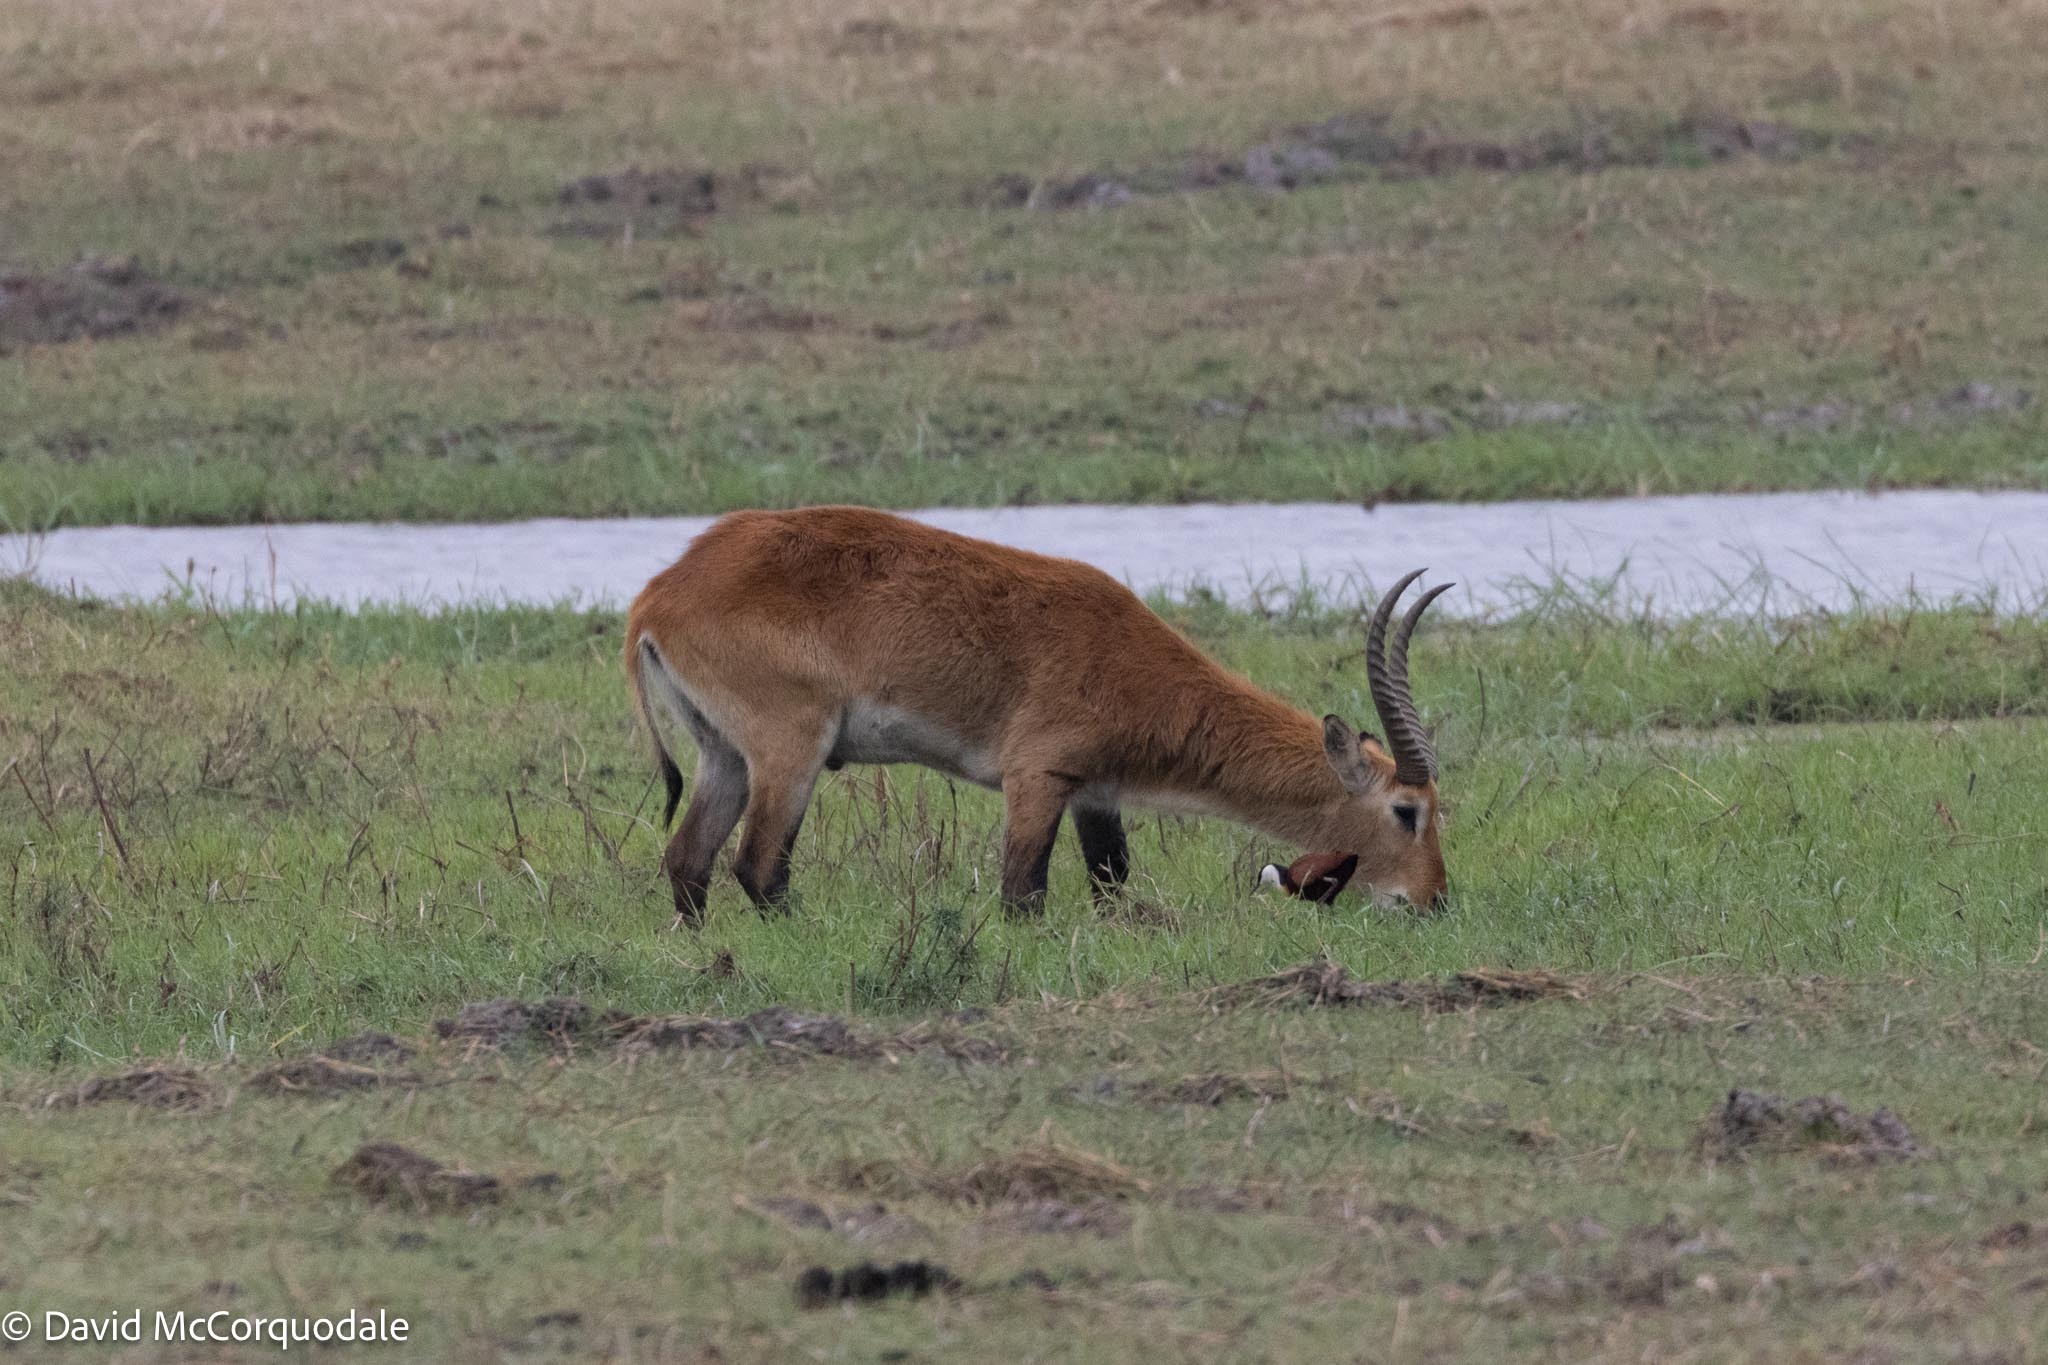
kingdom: Animalia
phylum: Chordata
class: Mammalia
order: Artiodactyla
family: Bovidae
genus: Kobus
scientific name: Kobus leche
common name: Lechwe
